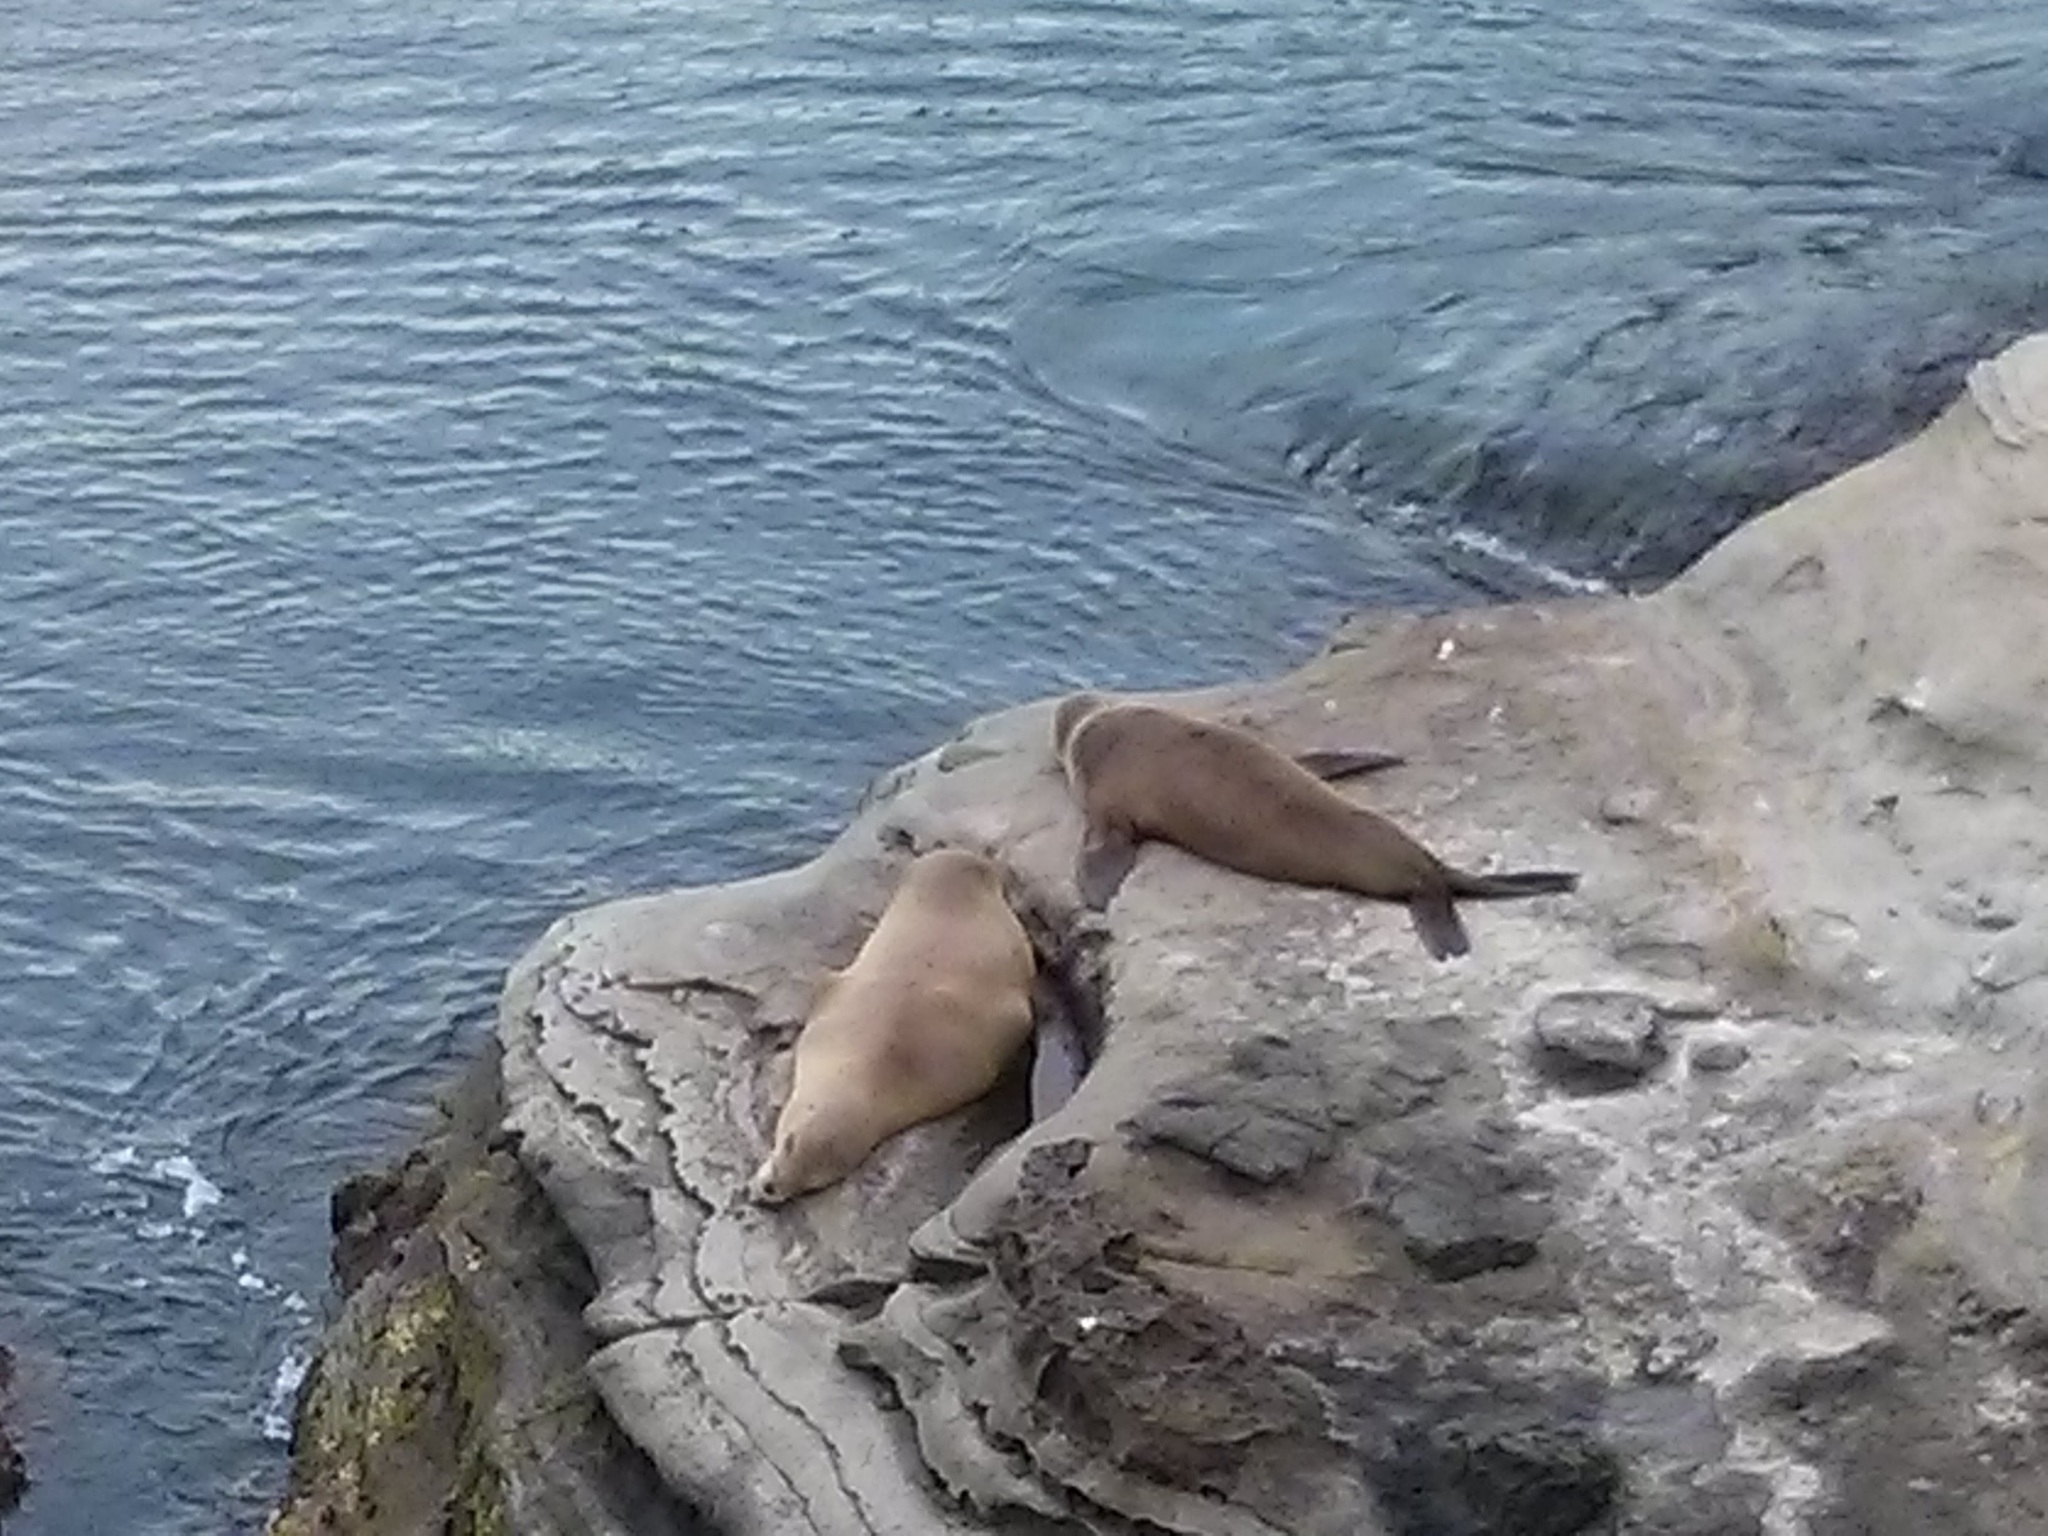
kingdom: Animalia
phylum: Chordata
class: Mammalia
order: Carnivora
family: Otariidae
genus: Zalophus
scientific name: Zalophus californianus
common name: California sea lion
